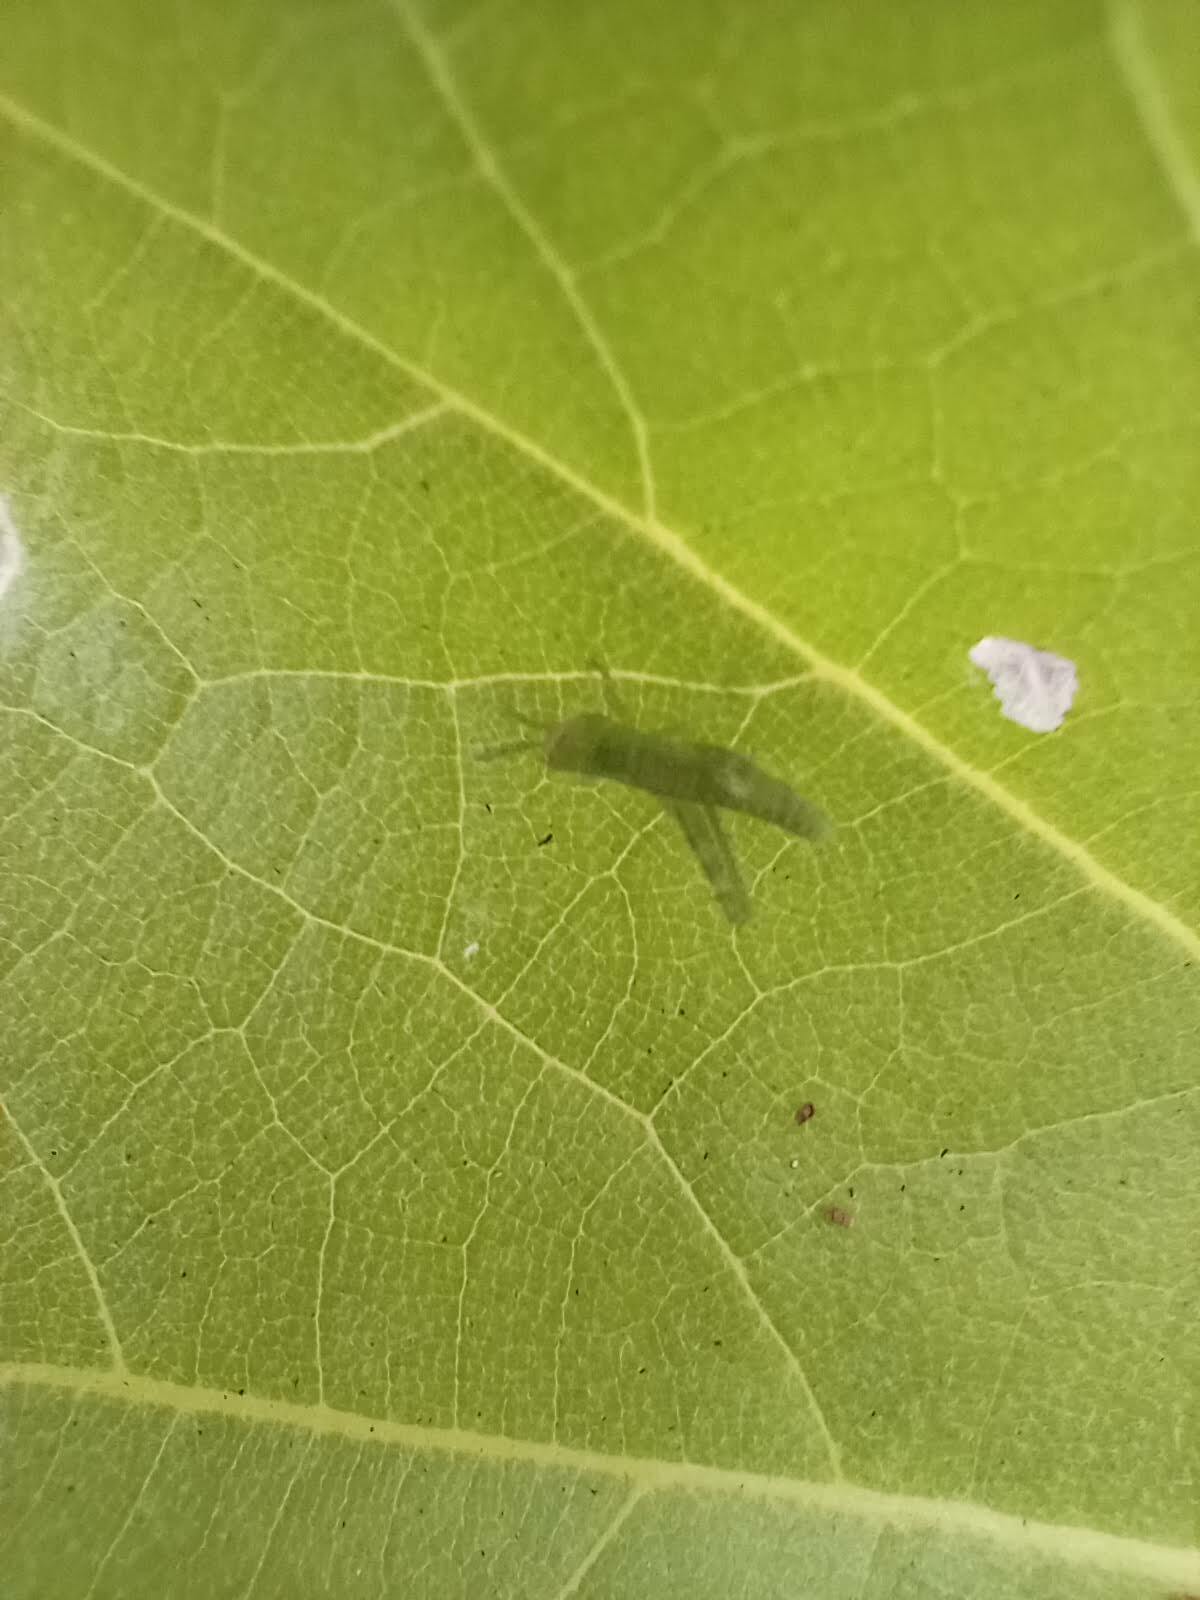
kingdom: Animalia
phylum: Arthropoda
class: Insecta
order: Orthoptera
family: Acrididae
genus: Schistocerca
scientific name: Schistocerca nitens
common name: Vagrant grasshopper
